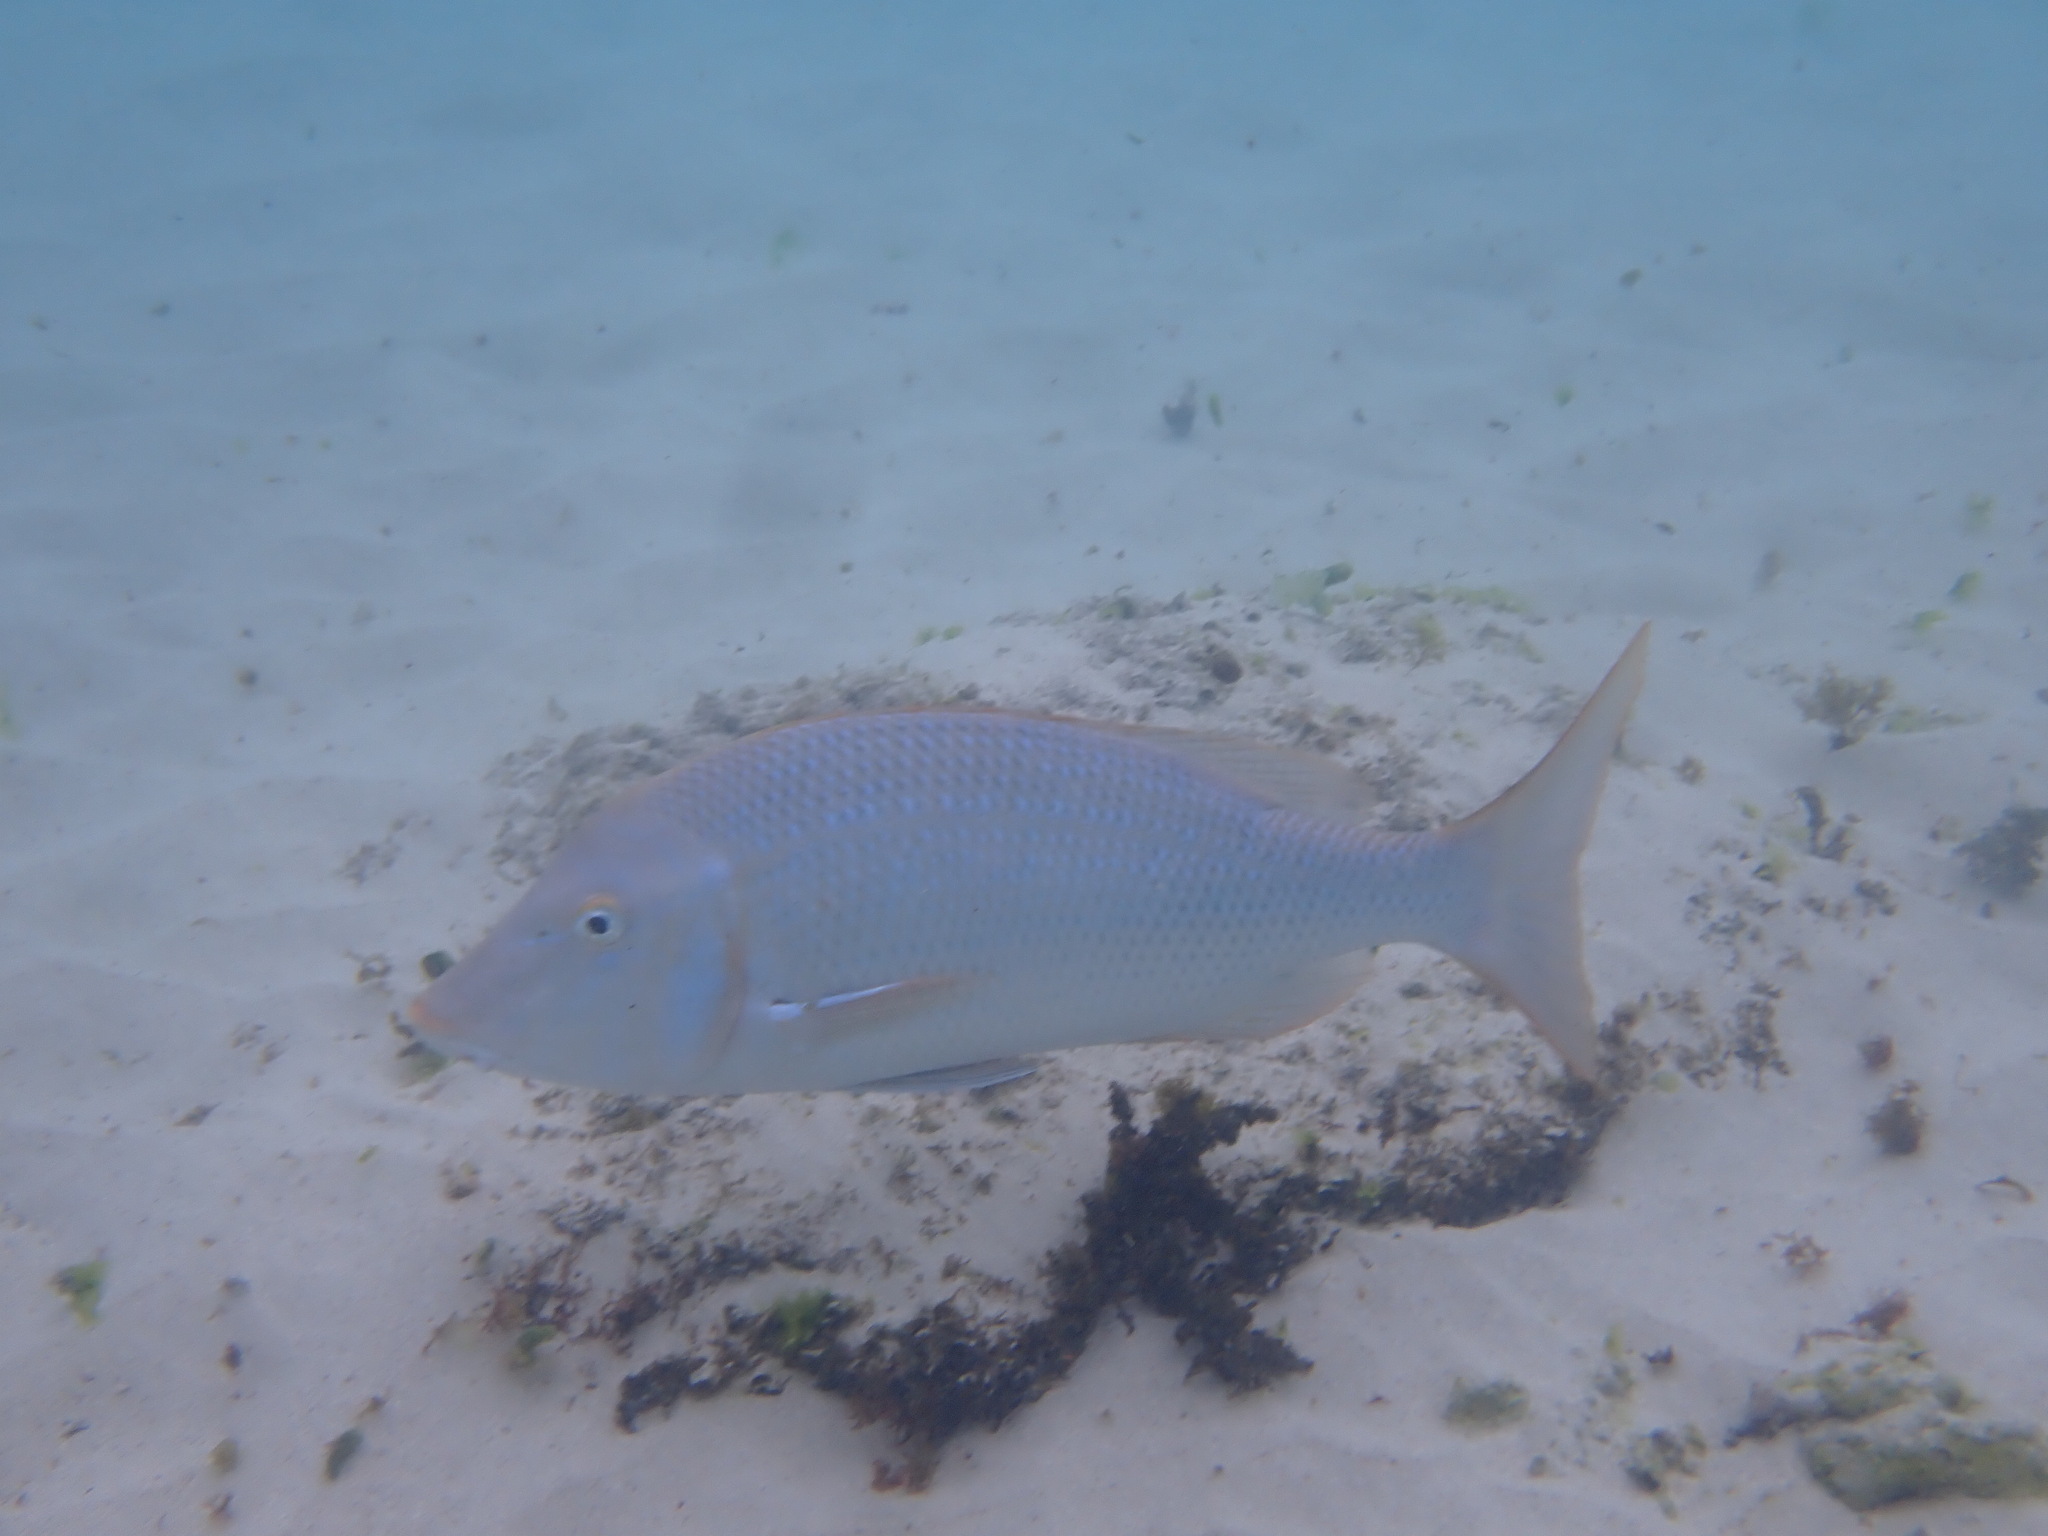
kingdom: Animalia
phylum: Chordata
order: Perciformes
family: Lethrinidae
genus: Lethrinus
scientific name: Lethrinus nebulosus
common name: Spangled emperor
